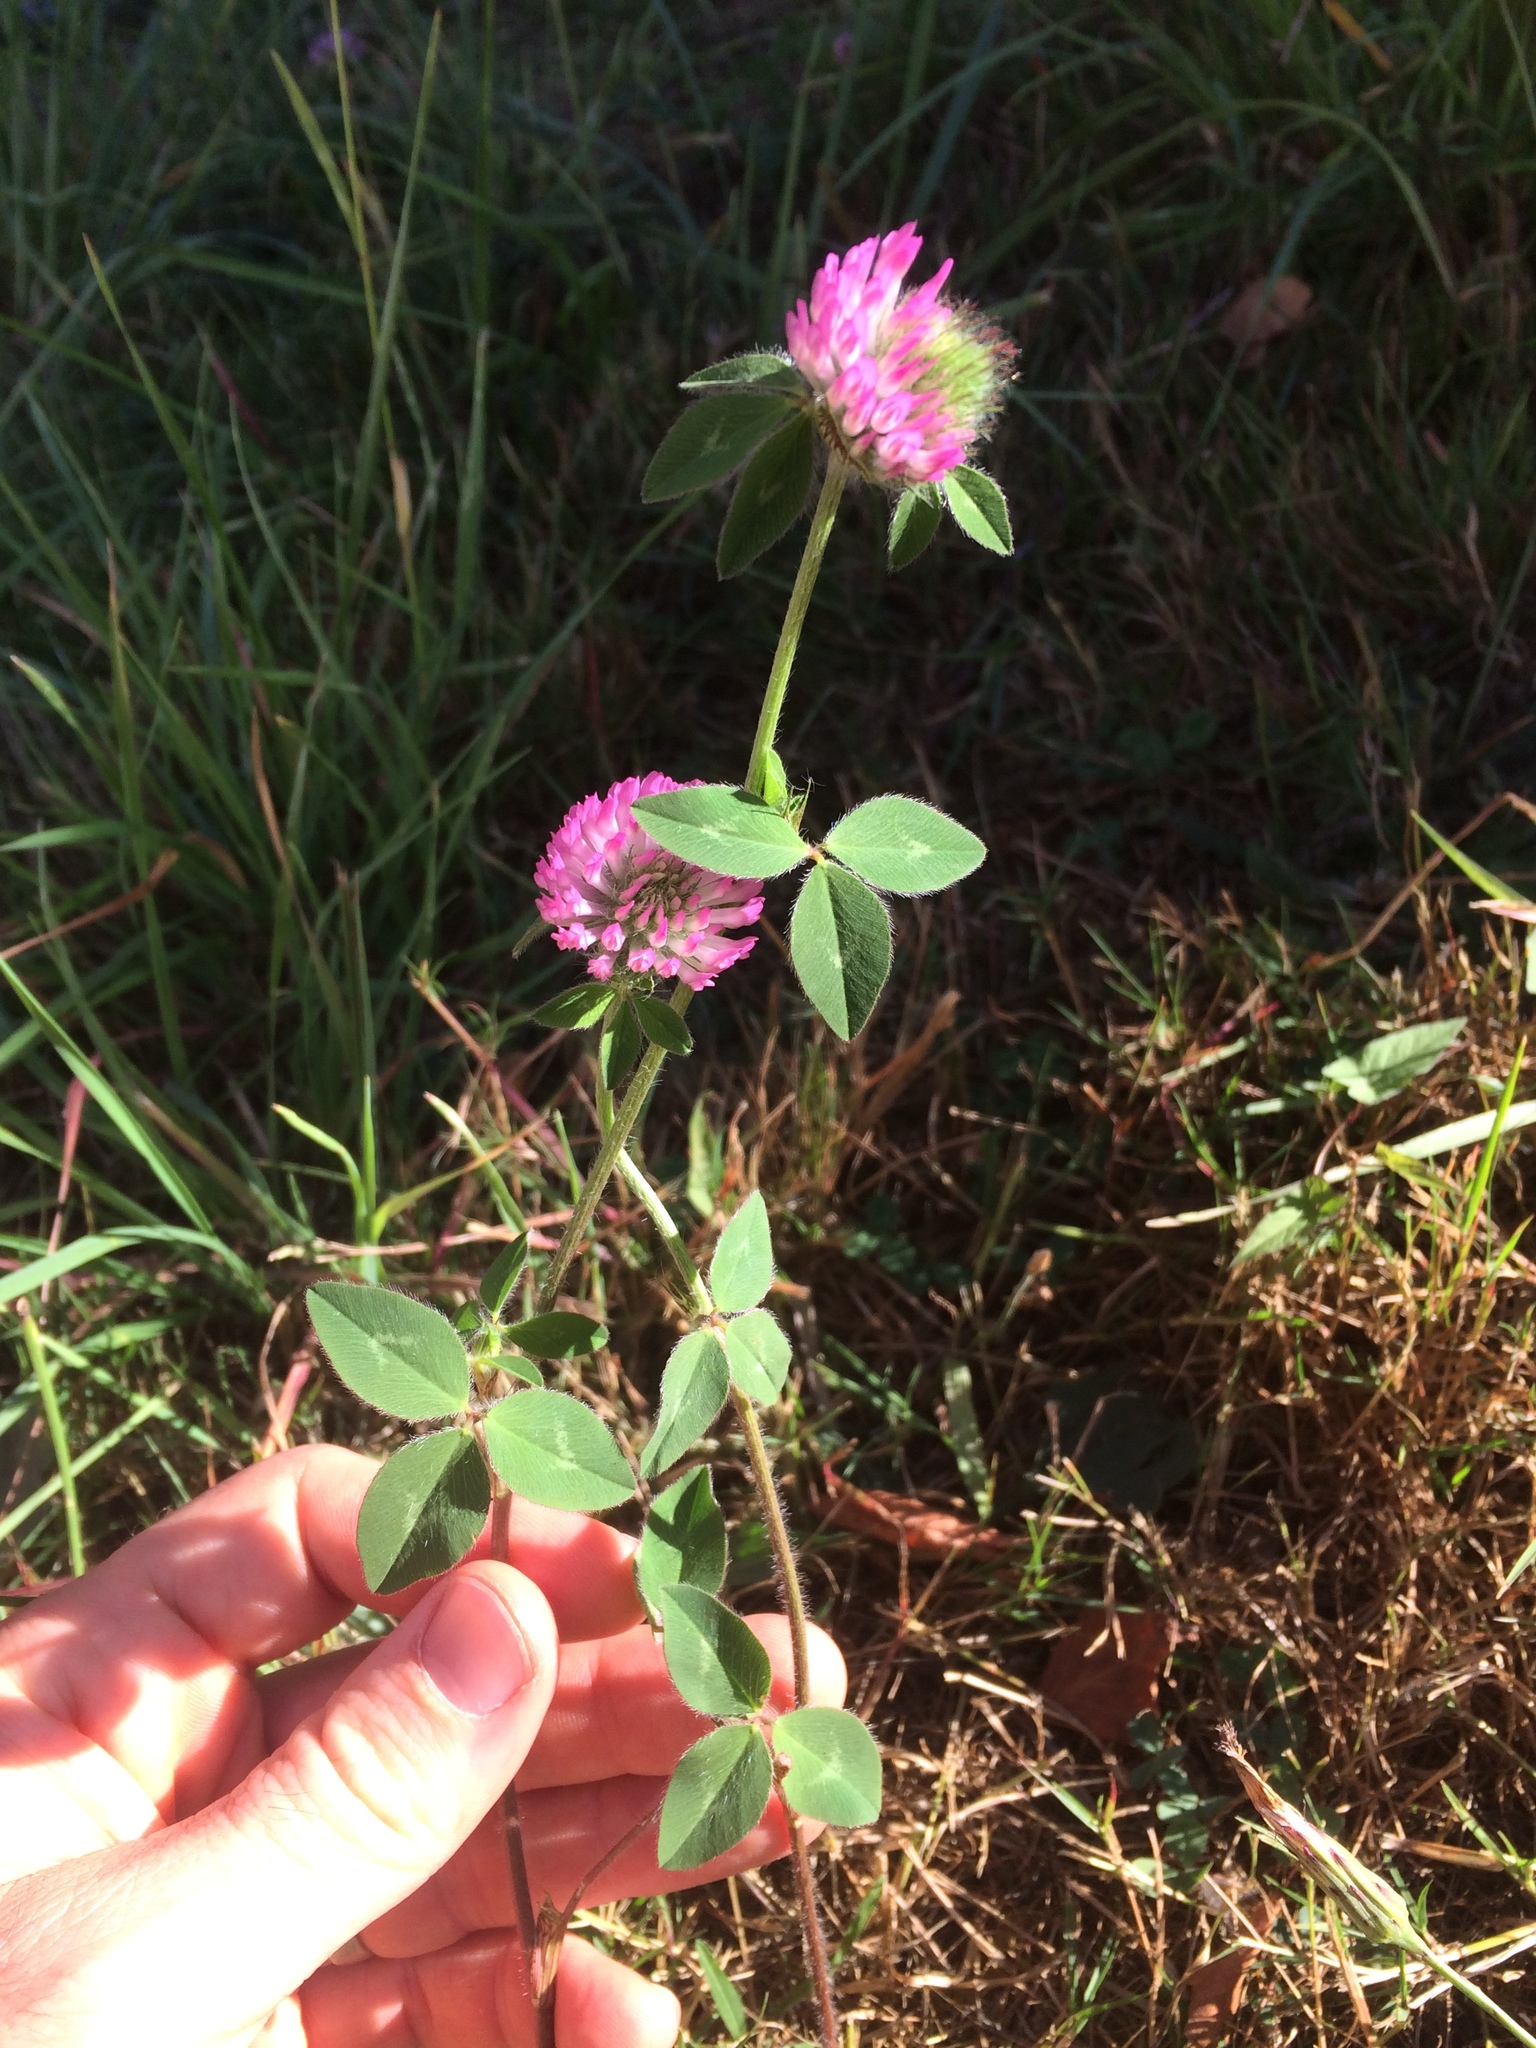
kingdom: Plantae
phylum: Tracheophyta
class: Magnoliopsida
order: Fabales
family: Fabaceae
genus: Trifolium
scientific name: Trifolium pratense
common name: Red clover
